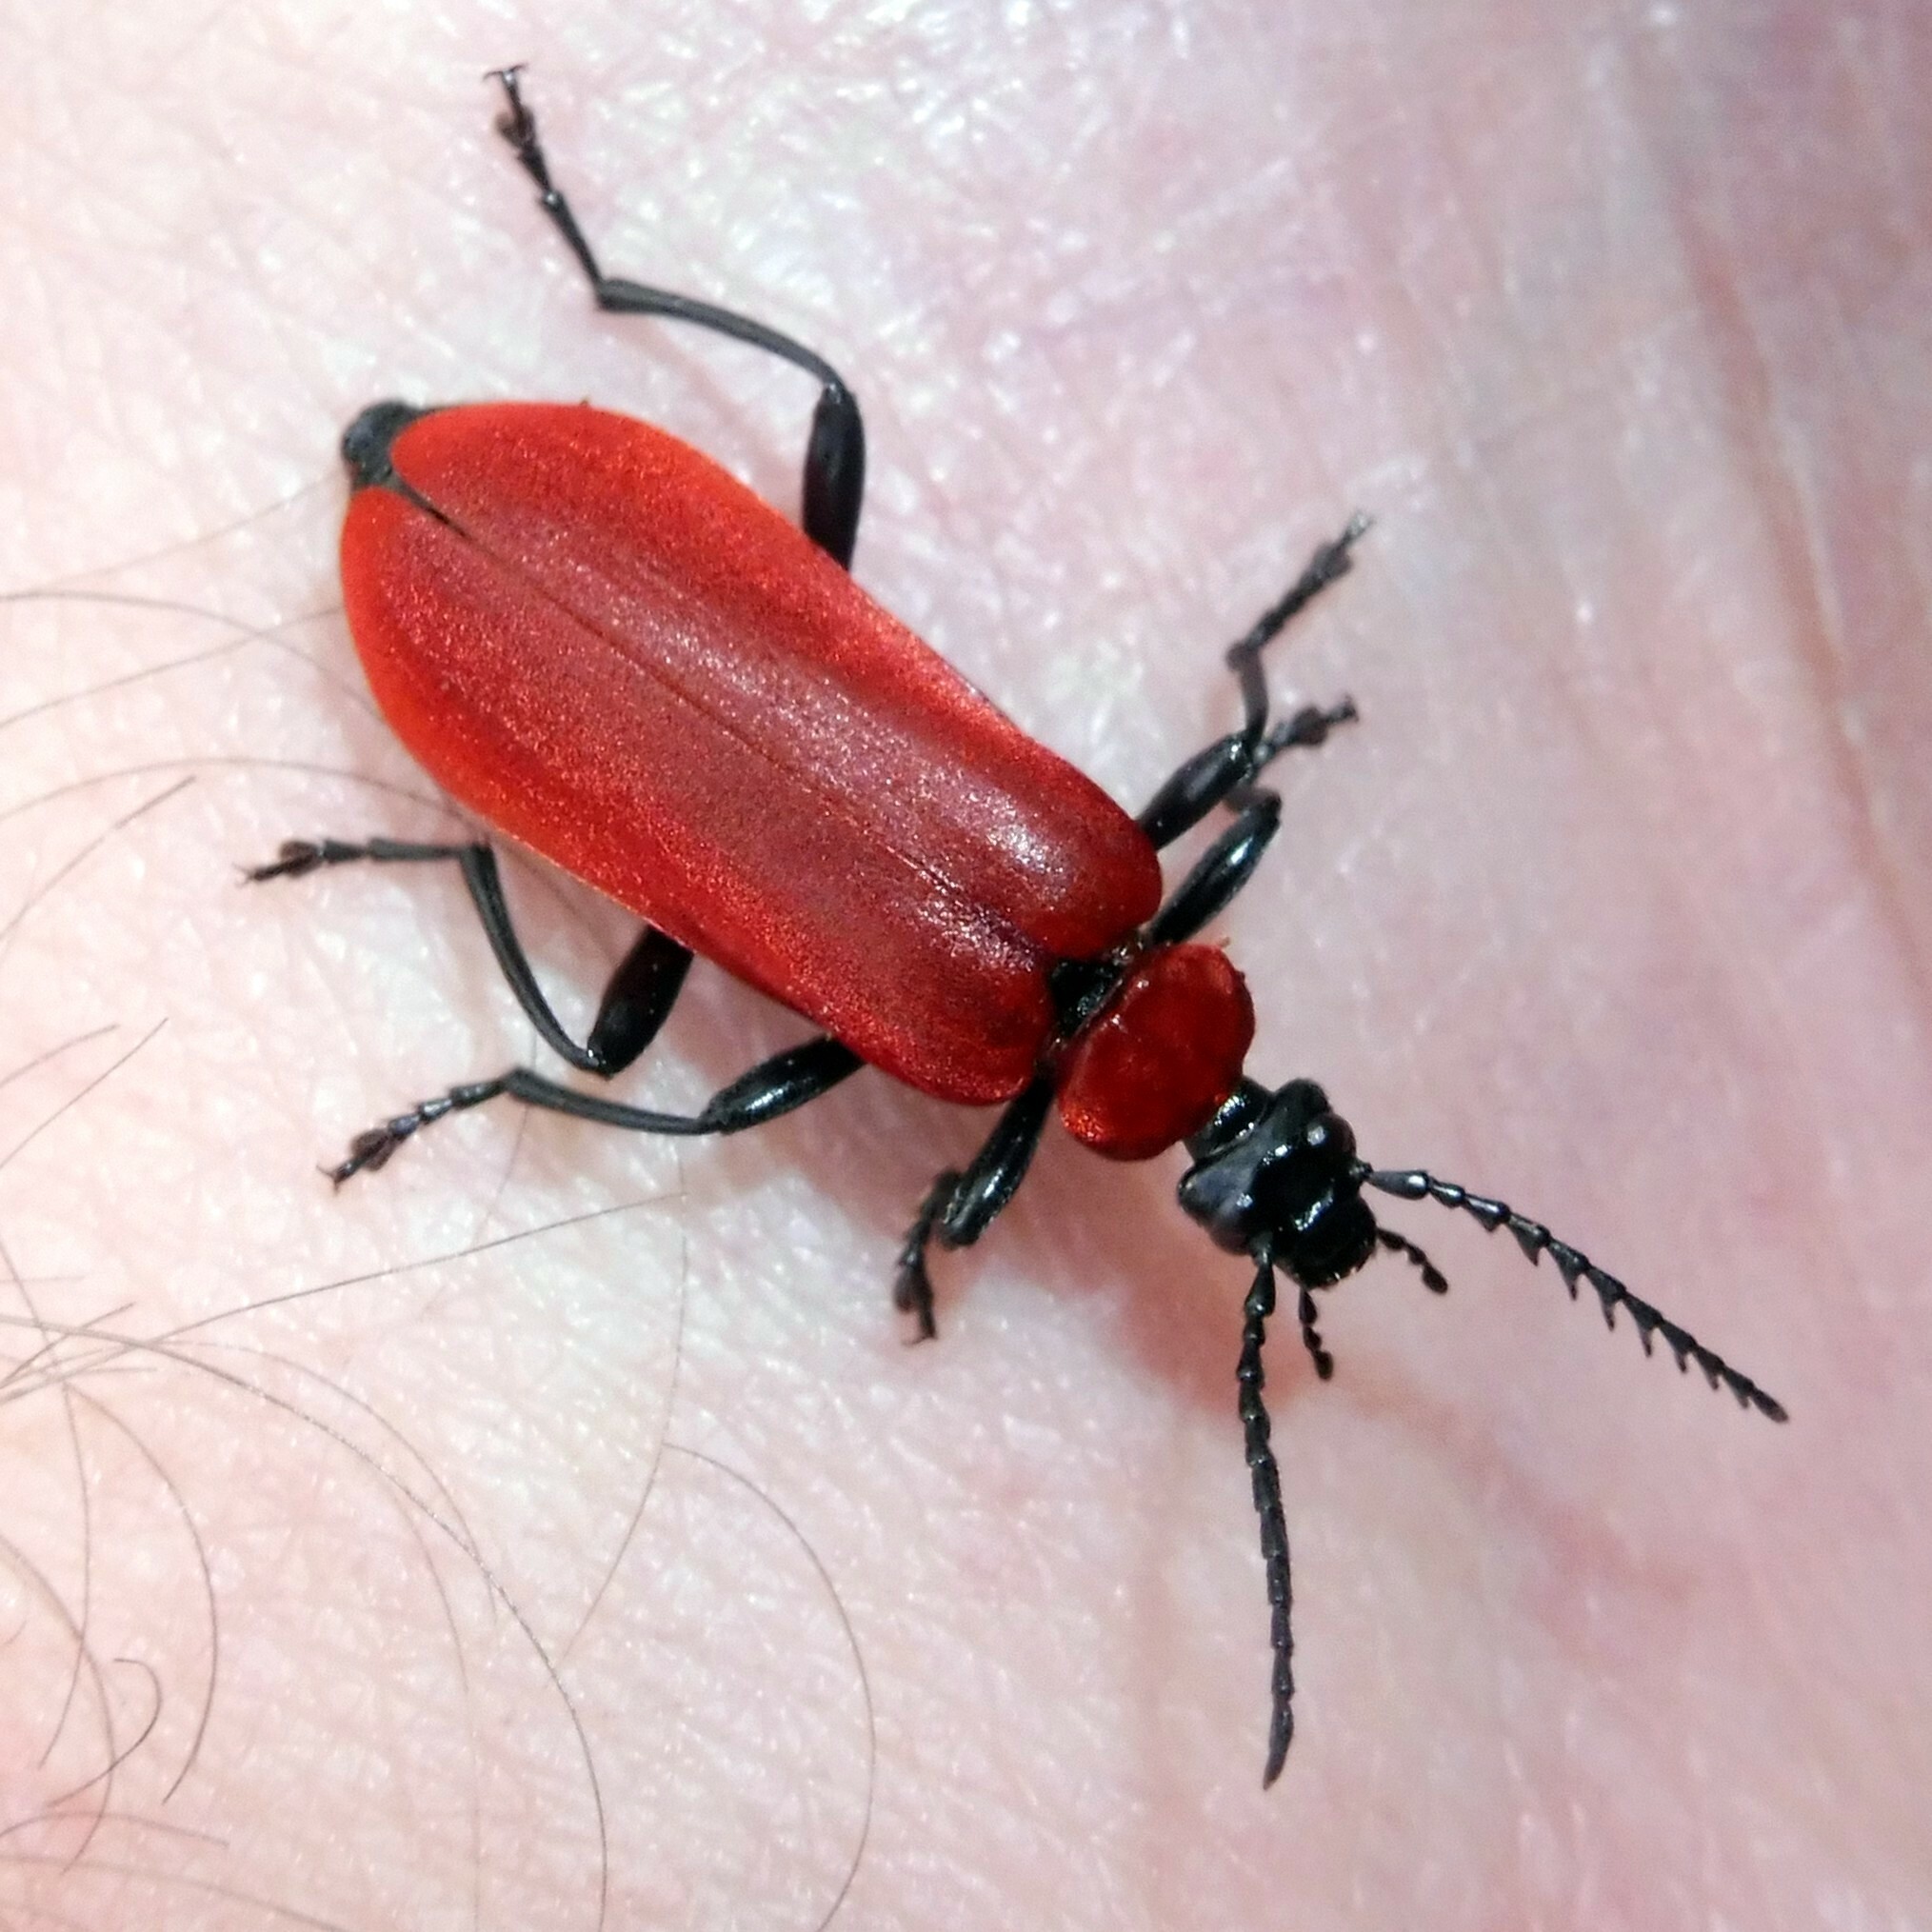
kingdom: Animalia
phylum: Arthropoda
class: Insecta
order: Coleoptera
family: Pyrochroidae
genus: Pyrochroa
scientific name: Pyrochroa coccinea
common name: Black-headed cardinal beetle
